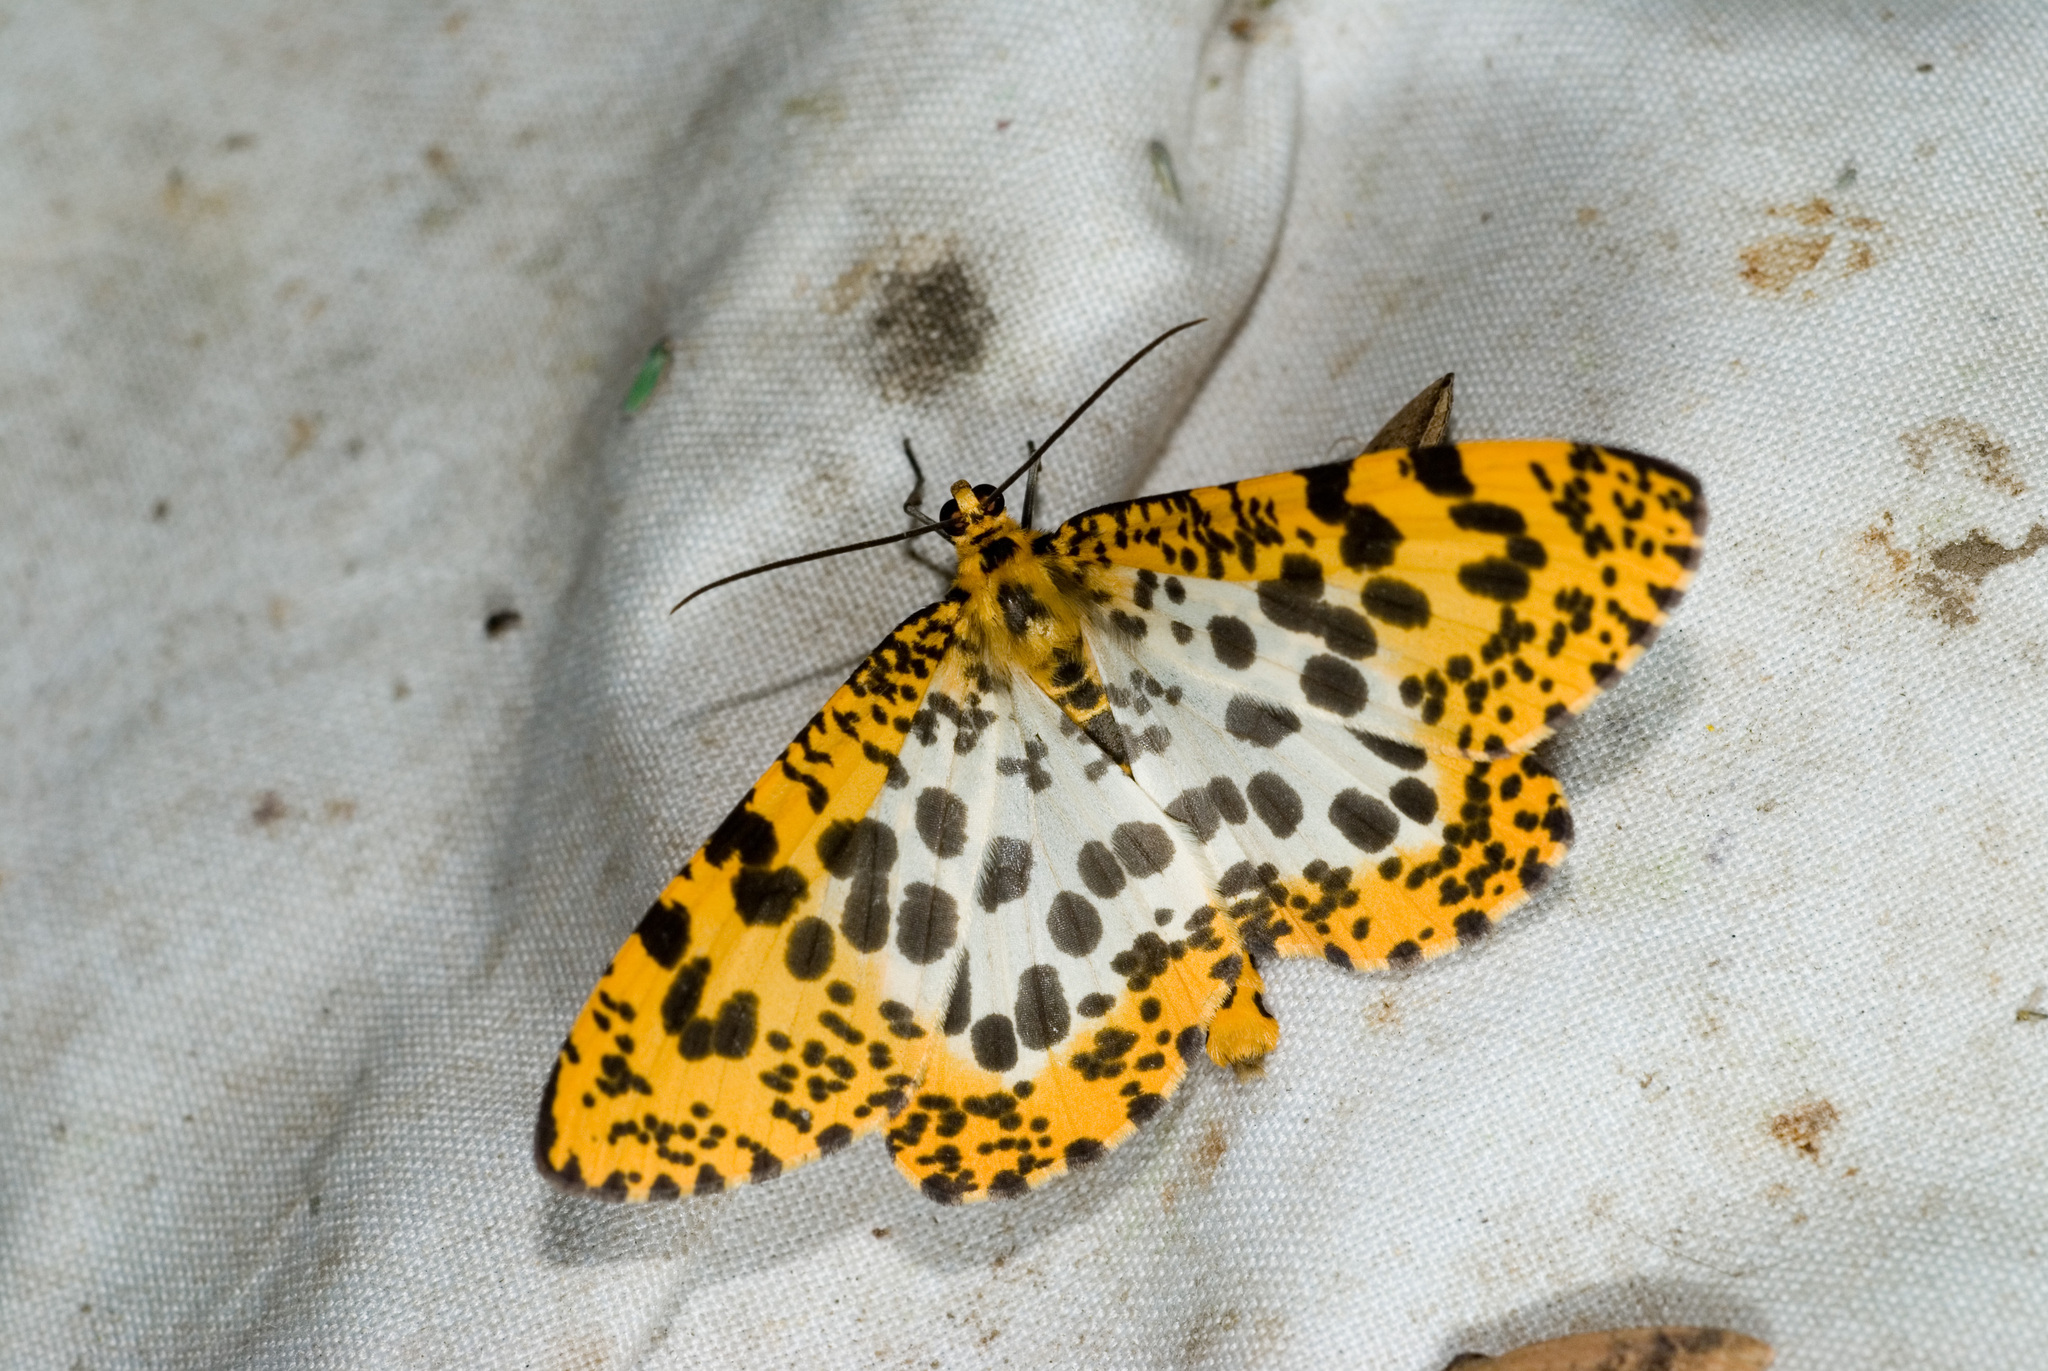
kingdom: Animalia
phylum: Arthropoda
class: Insecta
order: Lepidoptera
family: Geometridae
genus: Obeidia
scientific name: Obeidia Epobeidia tigrata
